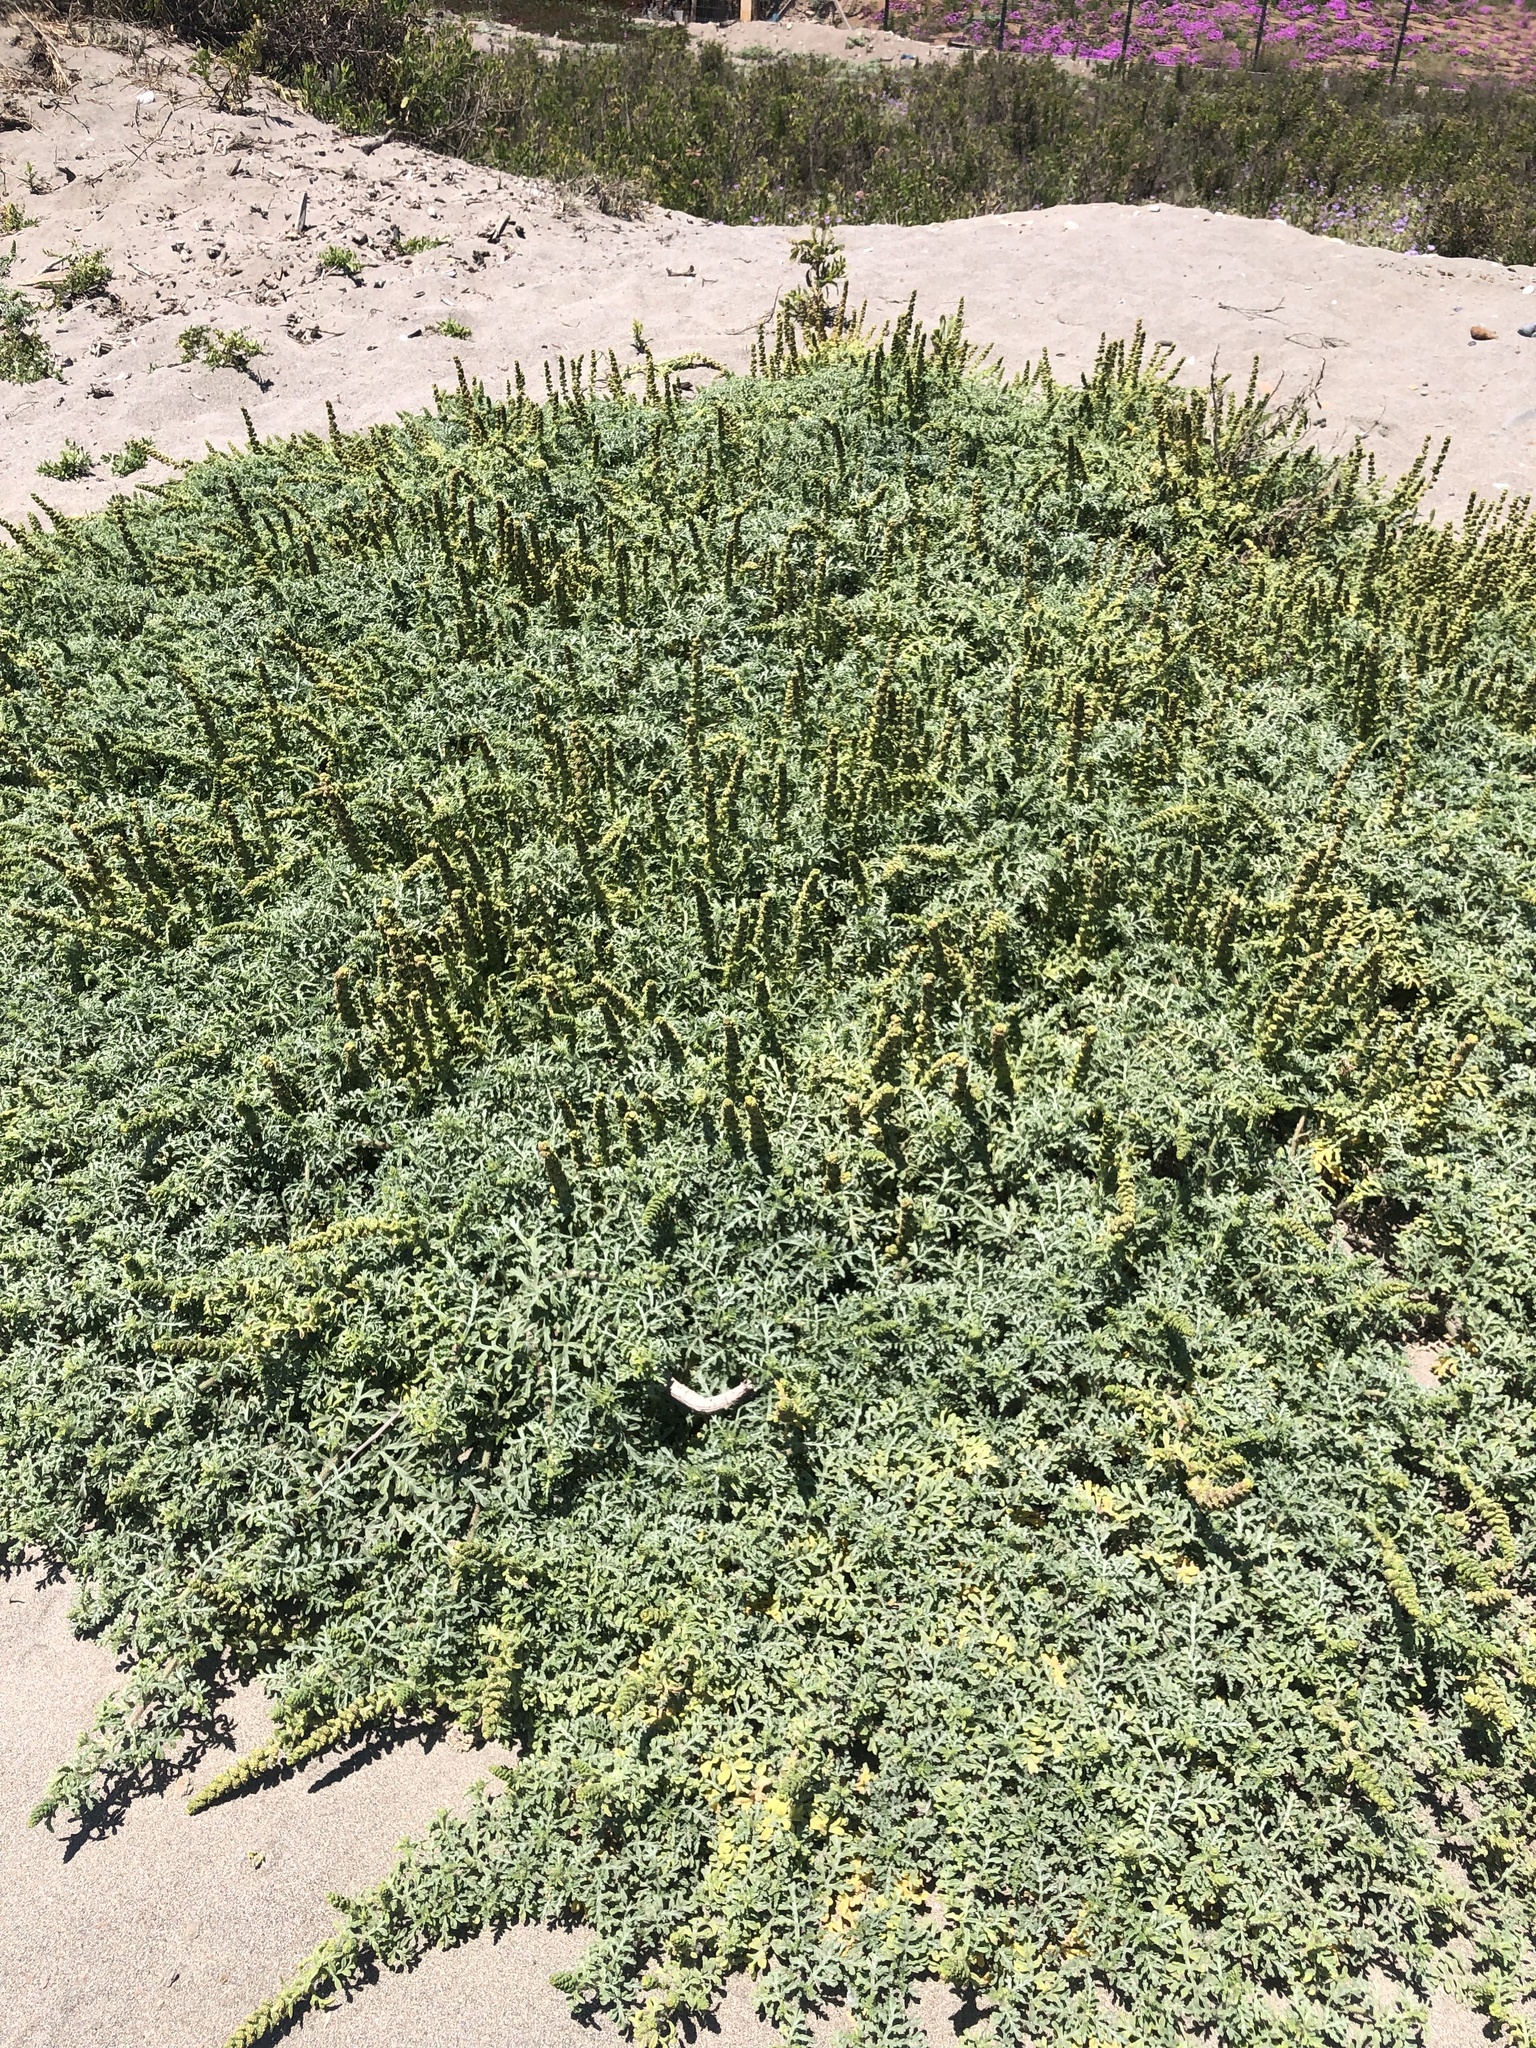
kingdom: Plantae
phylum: Tracheophyta
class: Magnoliopsida
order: Asterales
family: Asteraceae
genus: Ambrosia
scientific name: Ambrosia chamissonis
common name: Beachbur
